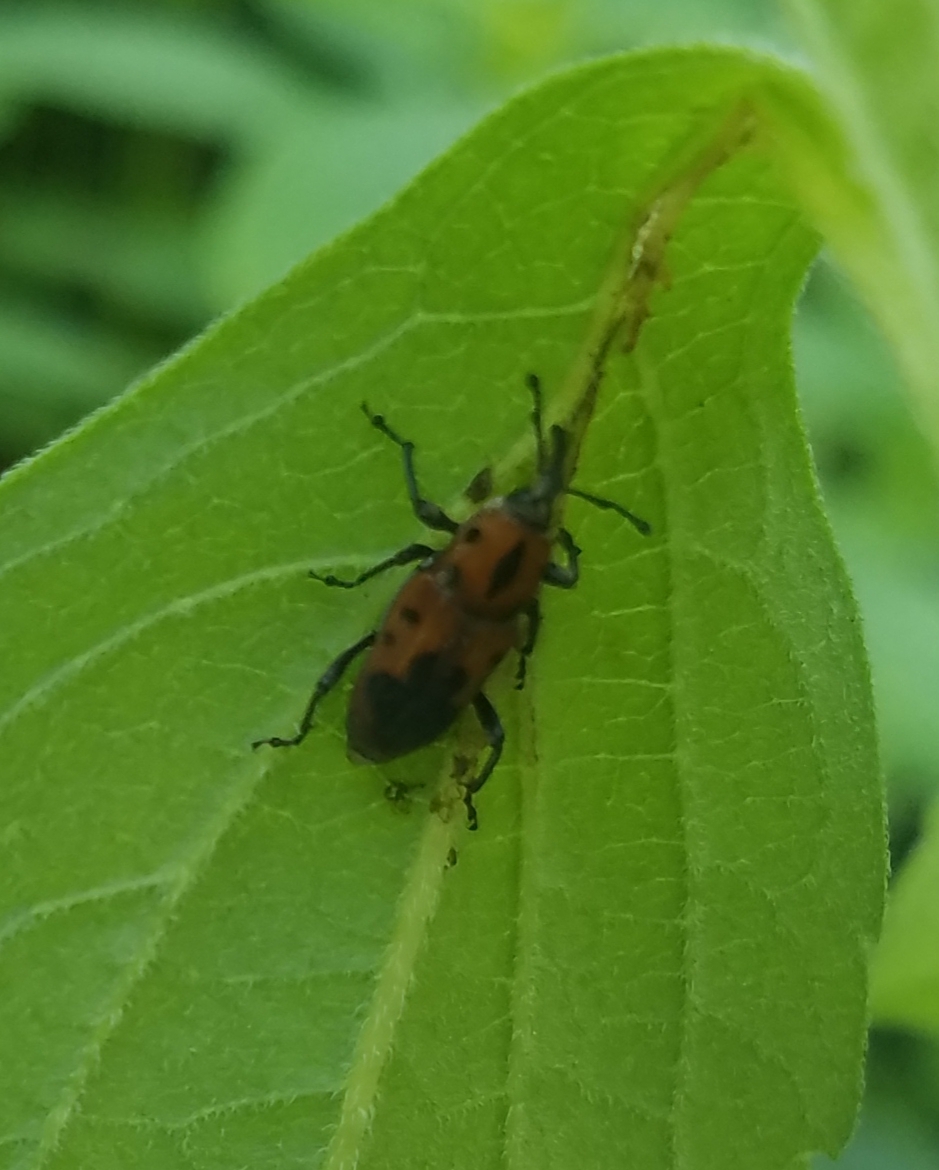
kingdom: Animalia
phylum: Arthropoda
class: Insecta
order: Coleoptera
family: Dryophthoridae
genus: Rhodobaenus
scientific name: Rhodobaenus quinquepunctatus
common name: Cocklebur weevil
